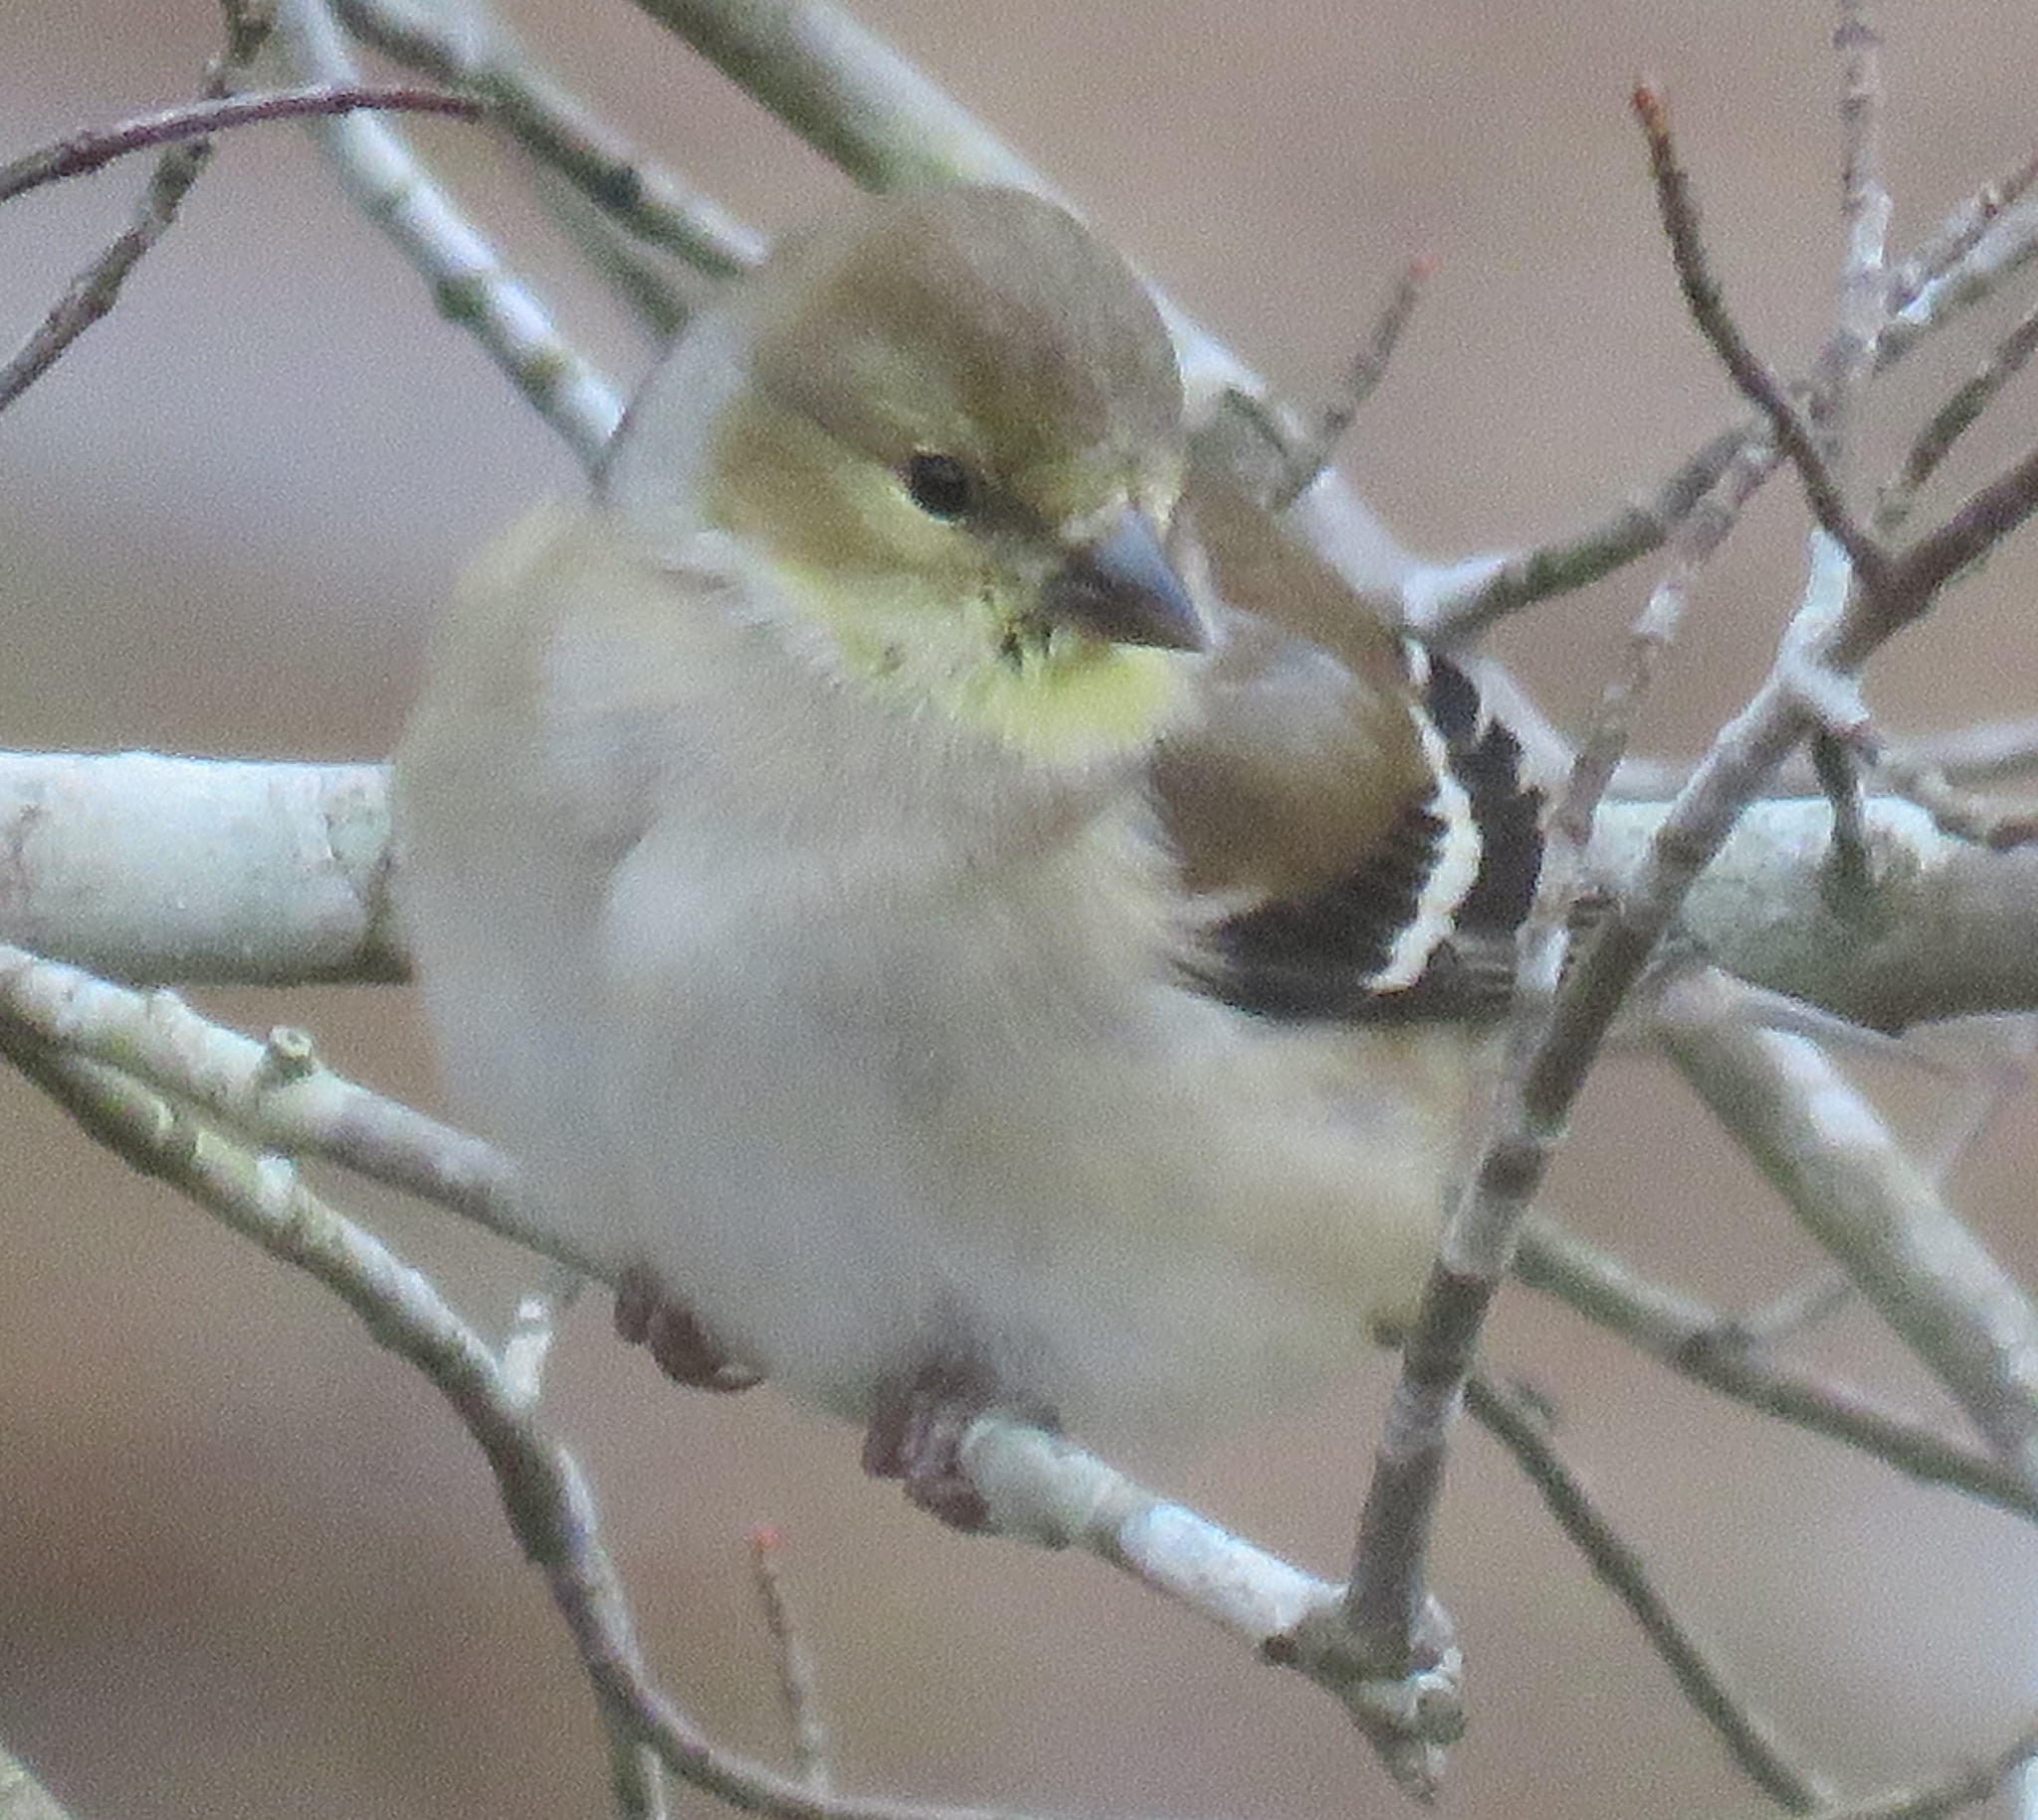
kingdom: Animalia
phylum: Chordata
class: Aves
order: Passeriformes
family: Fringillidae
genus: Spinus
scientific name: Spinus tristis
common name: American goldfinch
